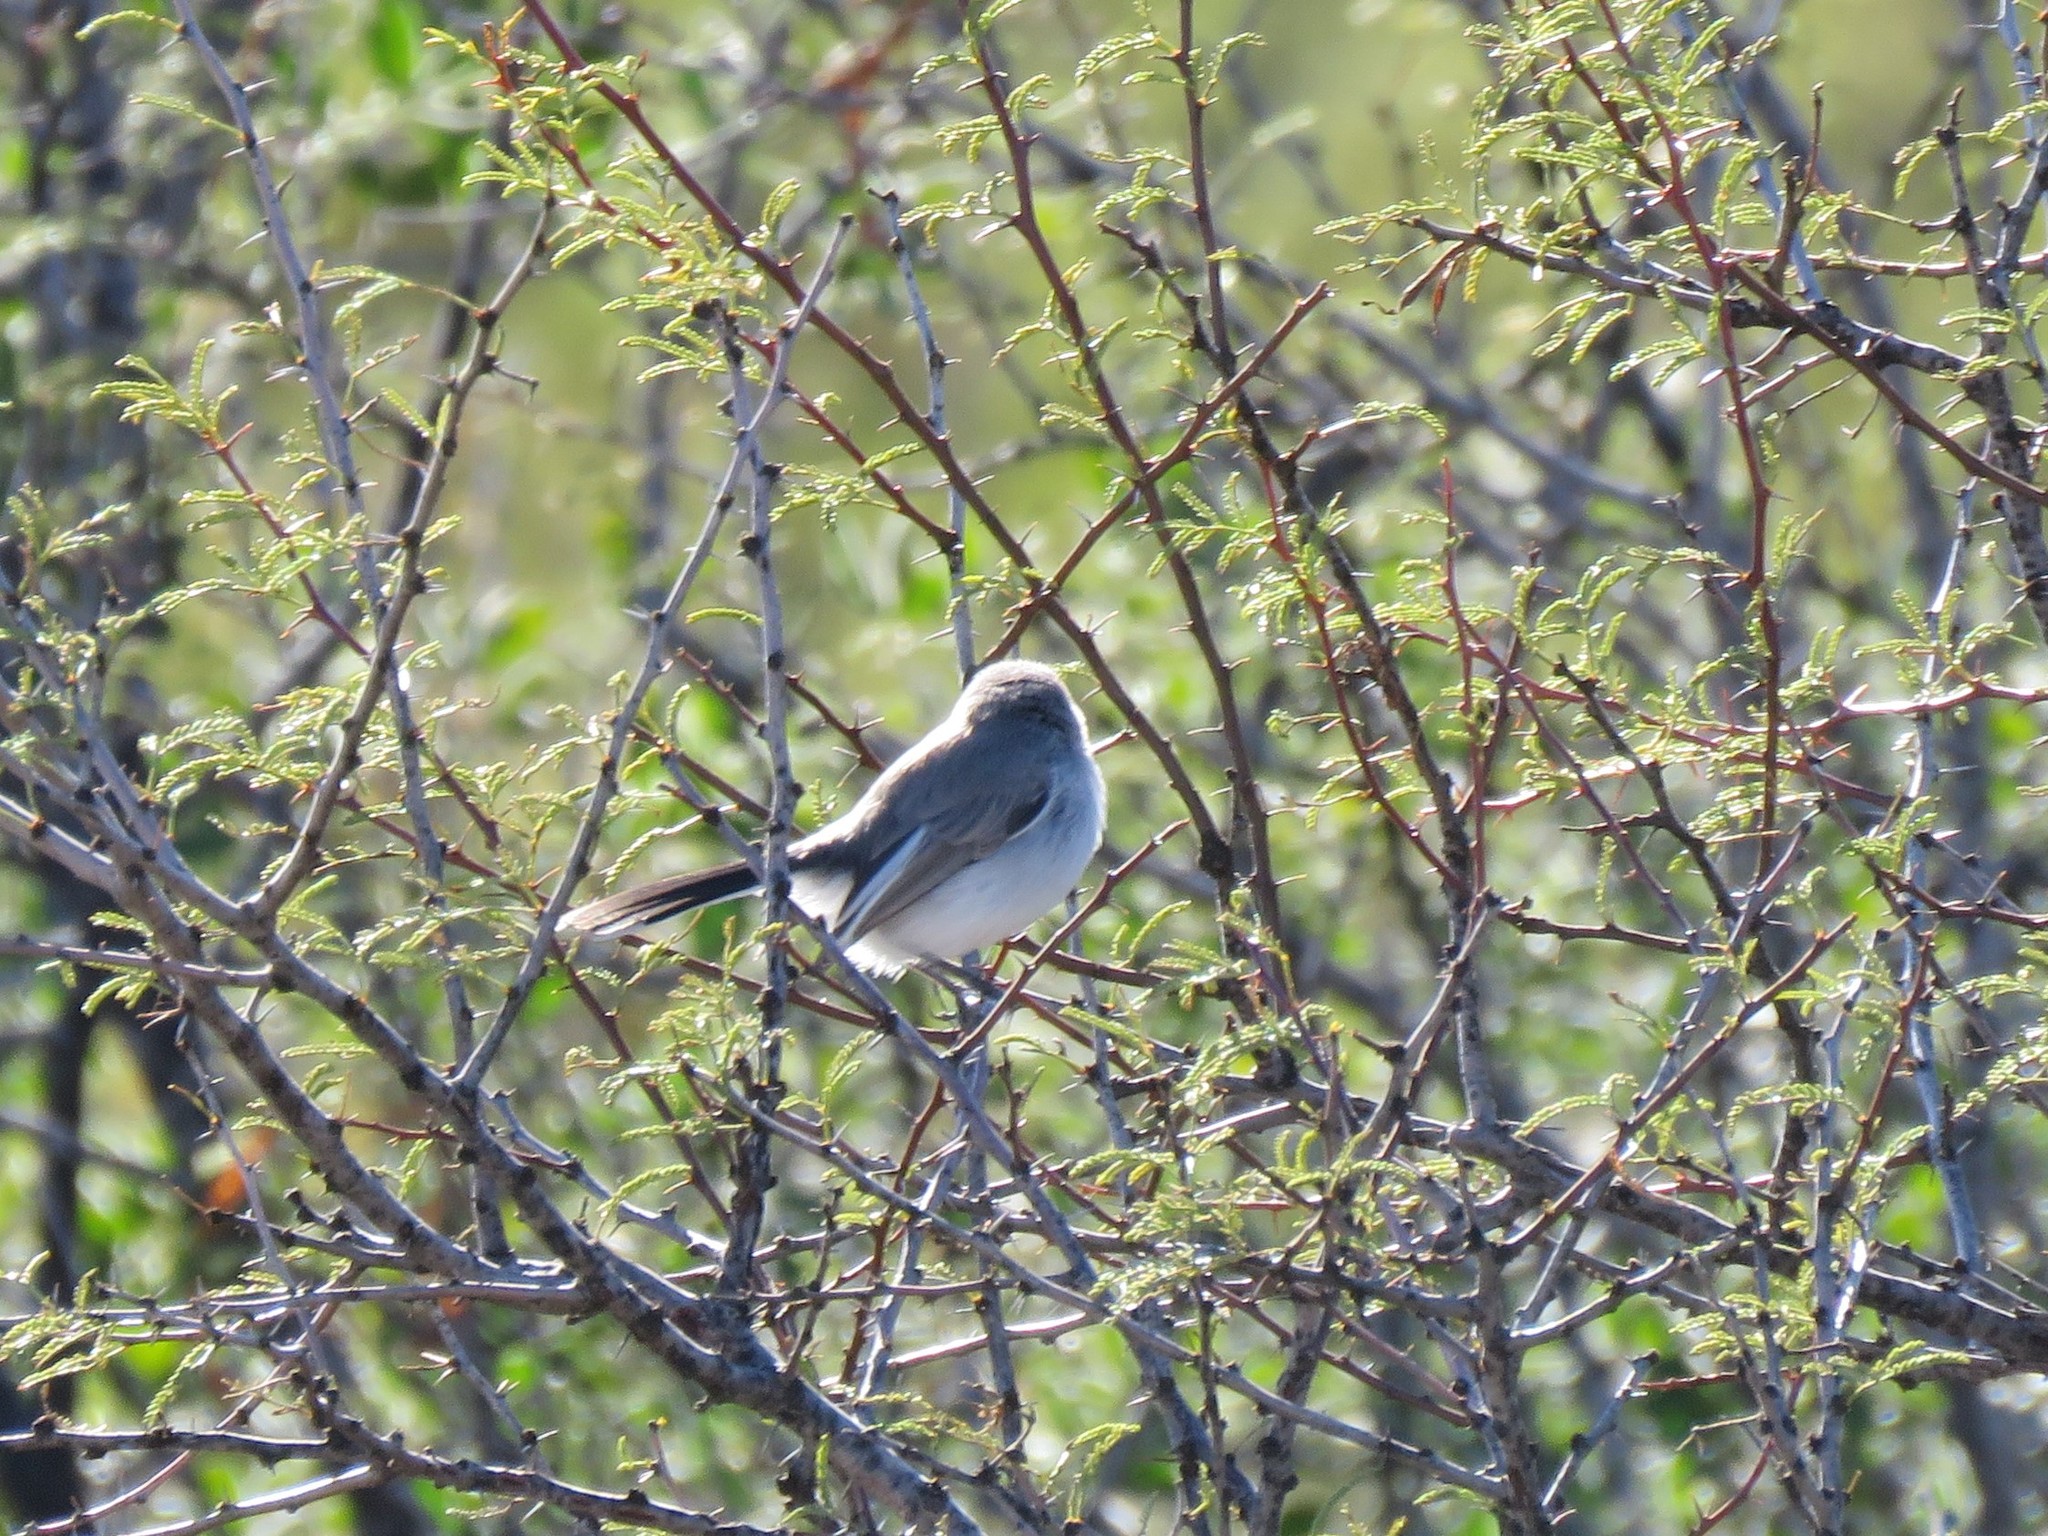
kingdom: Animalia
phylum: Chordata
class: Aves
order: Passeriformes
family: Polioptilidae
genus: Polioptila
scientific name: Polioptila caerulea
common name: Blue-gray gnatcatcher
